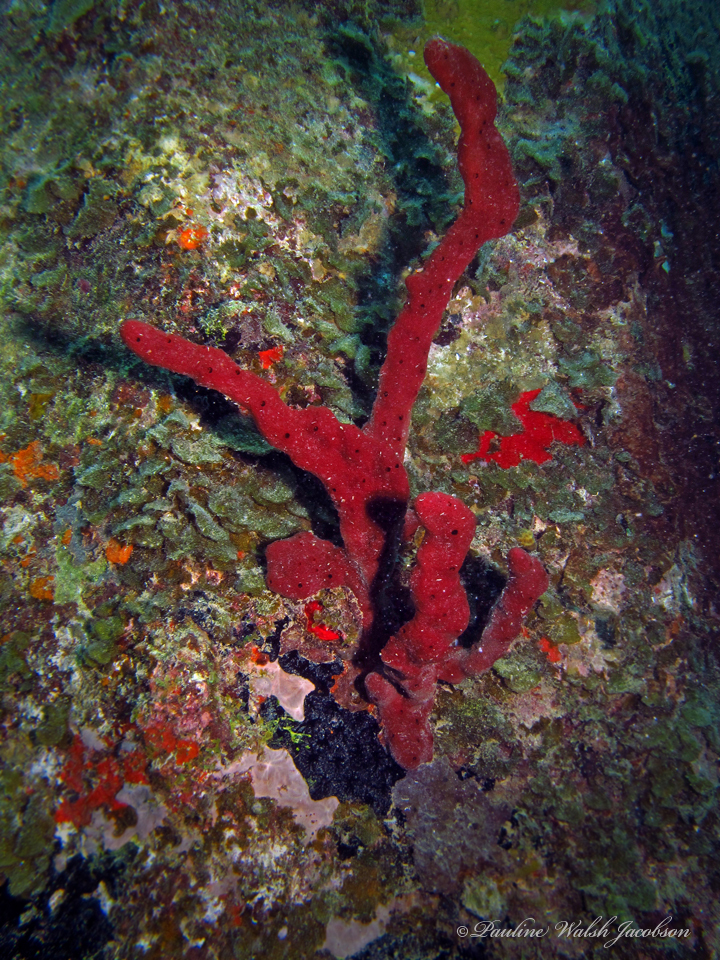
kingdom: Animalia
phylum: Porifera
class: Demospongiae
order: Haplosclerida
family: Niphatidae
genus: Amphimedon
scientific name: Amphimedon compressa
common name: Red sponge
